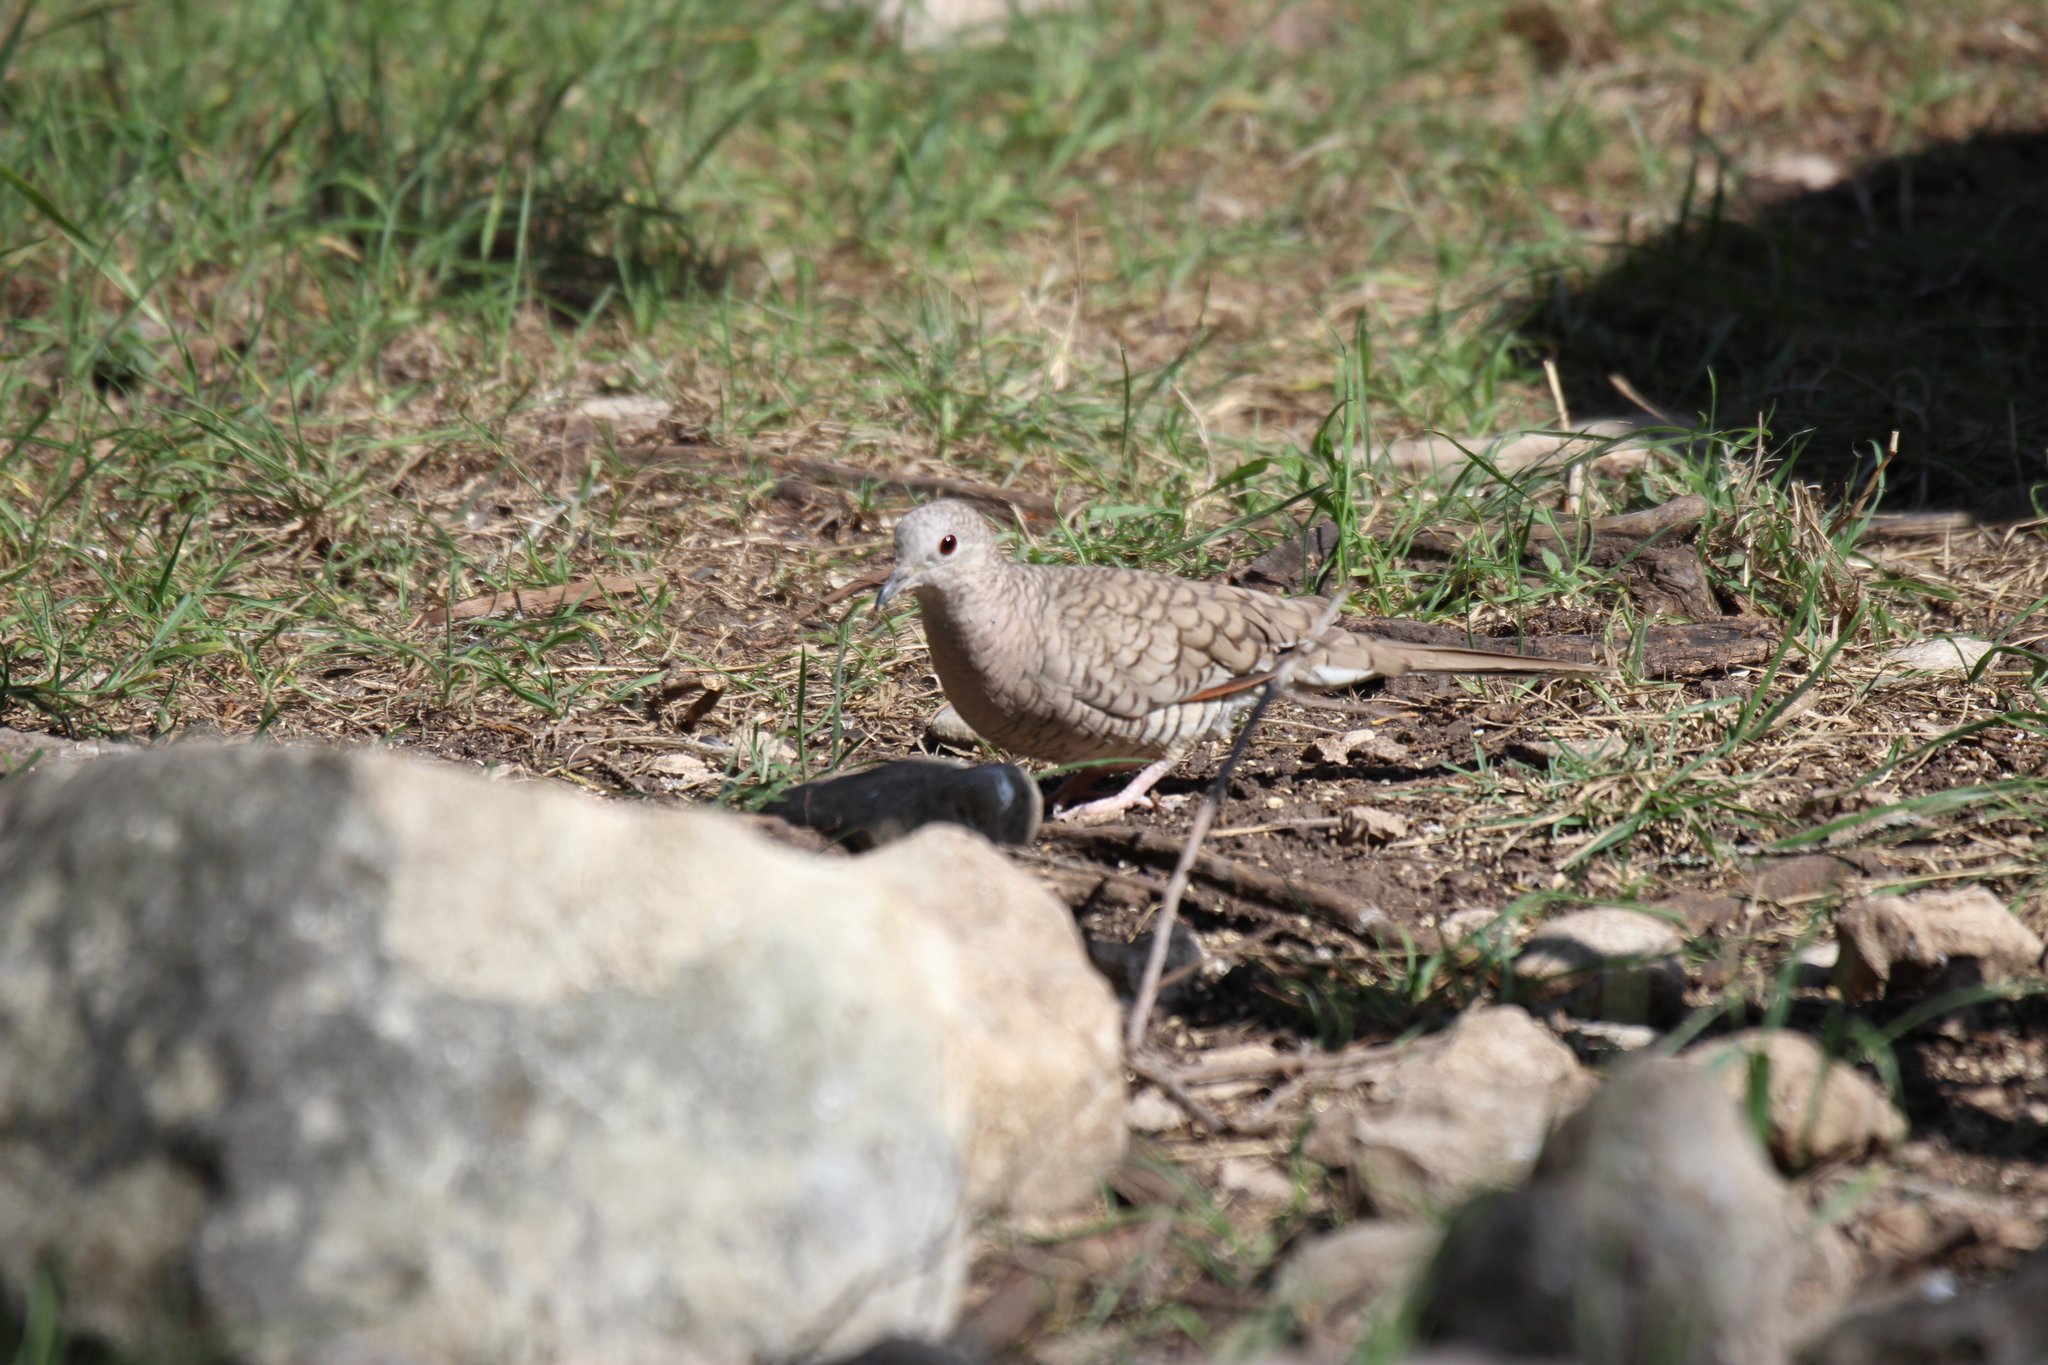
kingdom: Animalia
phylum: Chordata
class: Aves
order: Columbiformes
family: Columbidae
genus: Columbina
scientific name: Columbina inca
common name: Inca dove
